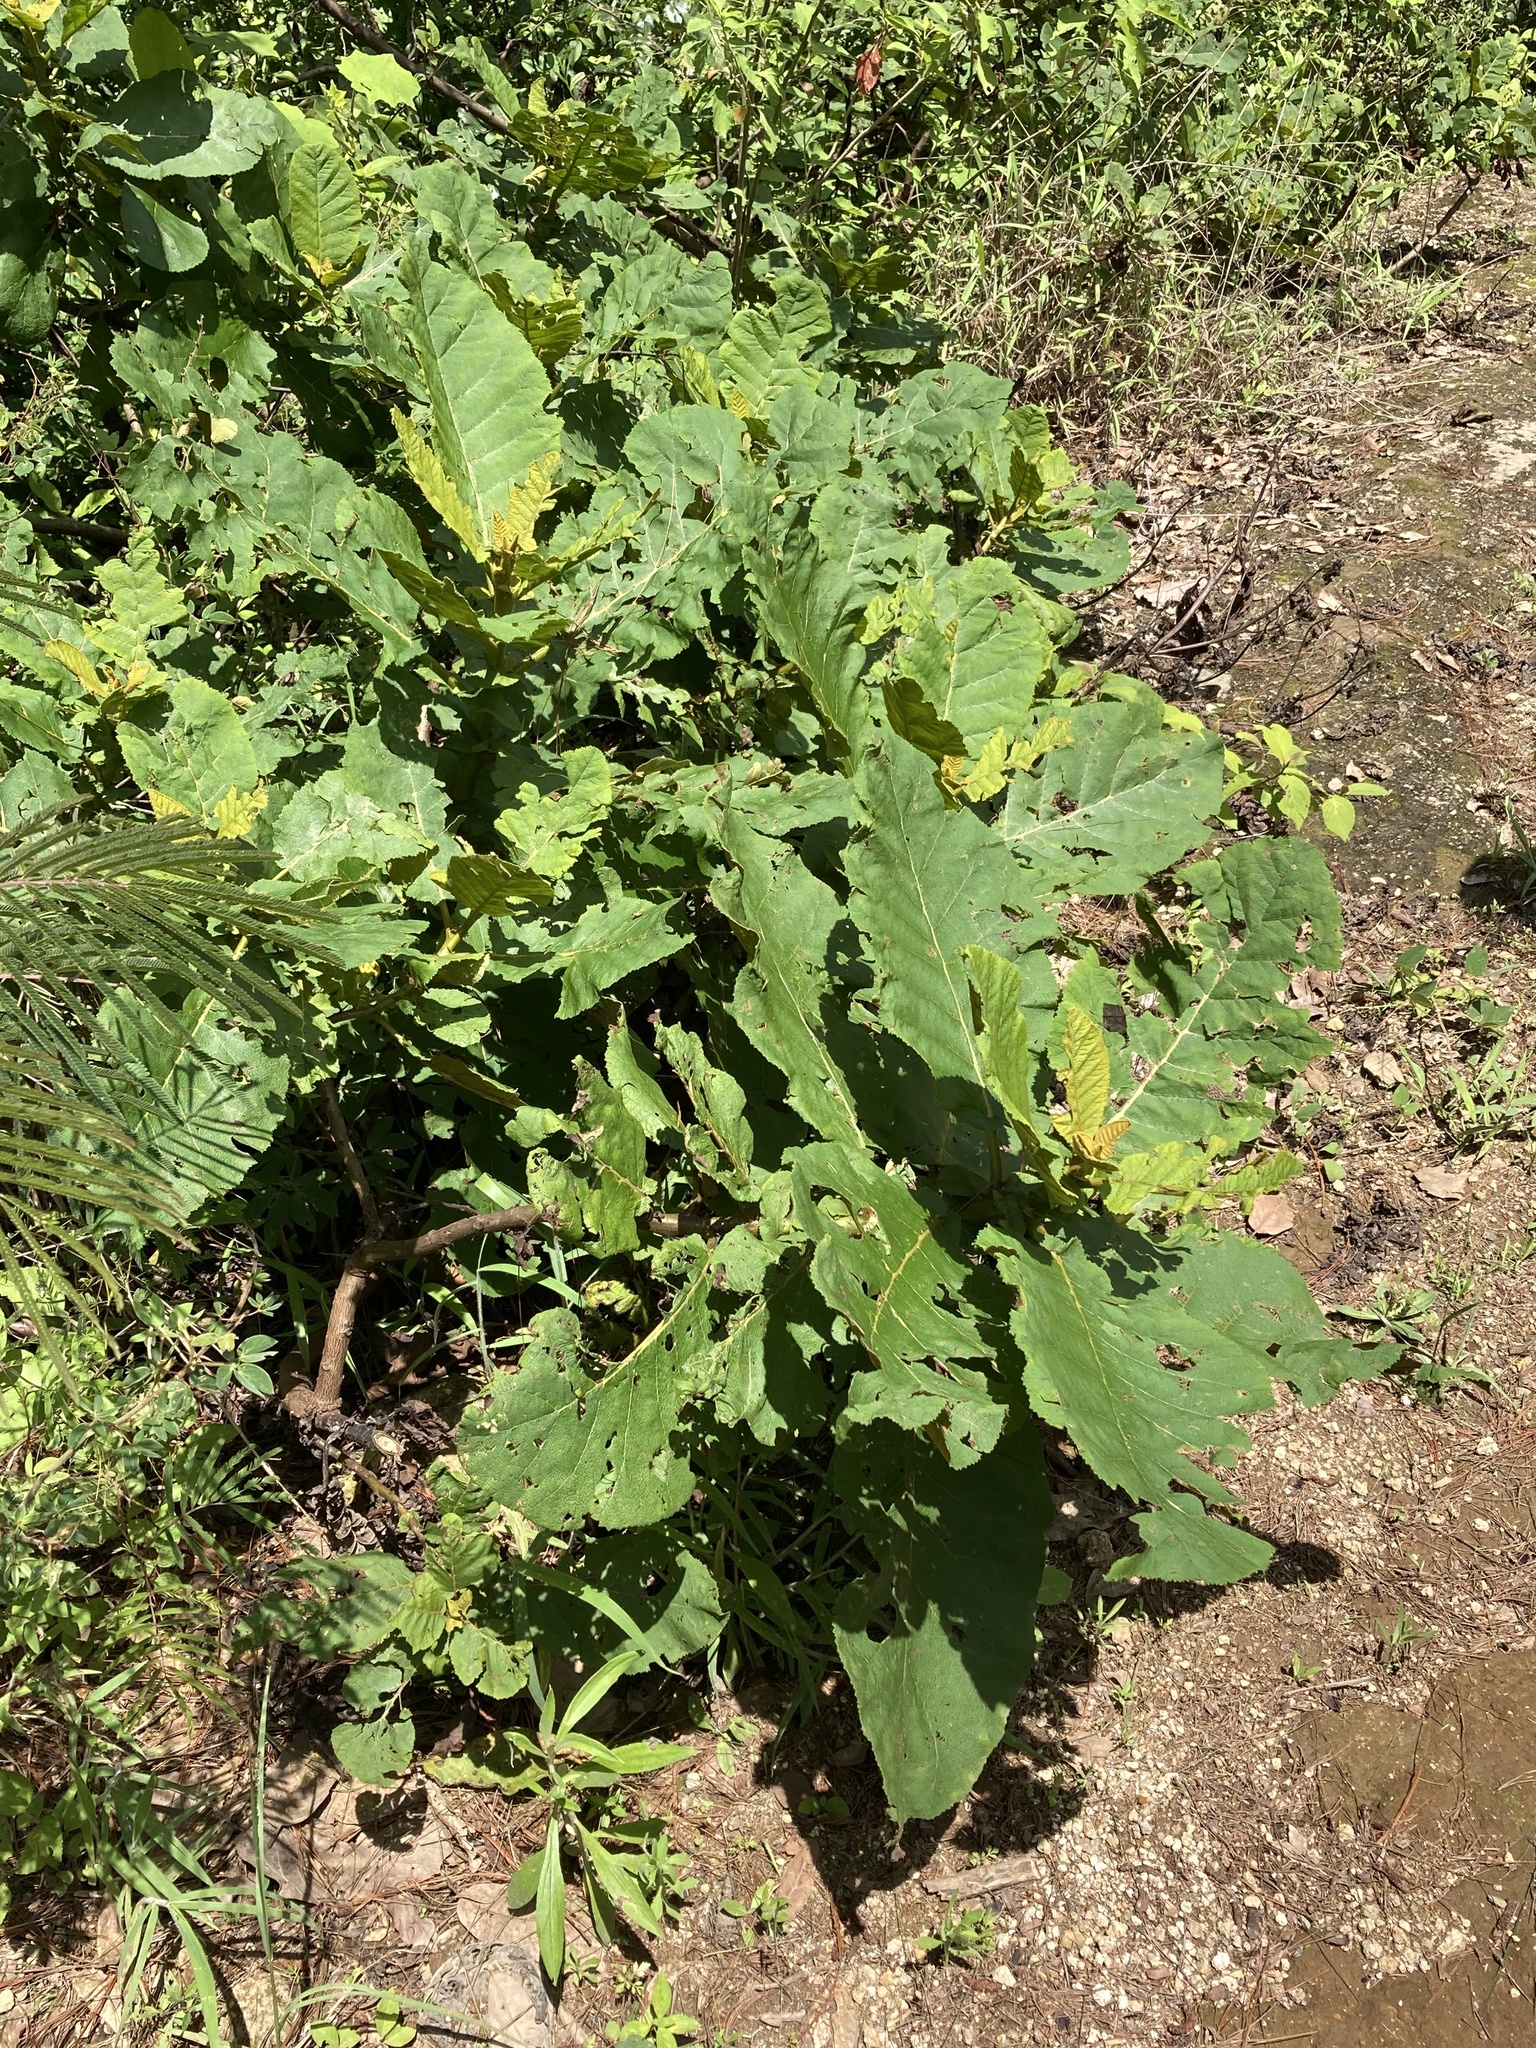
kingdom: Plantae
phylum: Tracheophyta
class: Magnoliopsida
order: Boraginales
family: Namaceae
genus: Wigandia
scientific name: Wigandia urens
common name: Caracus wigandia
